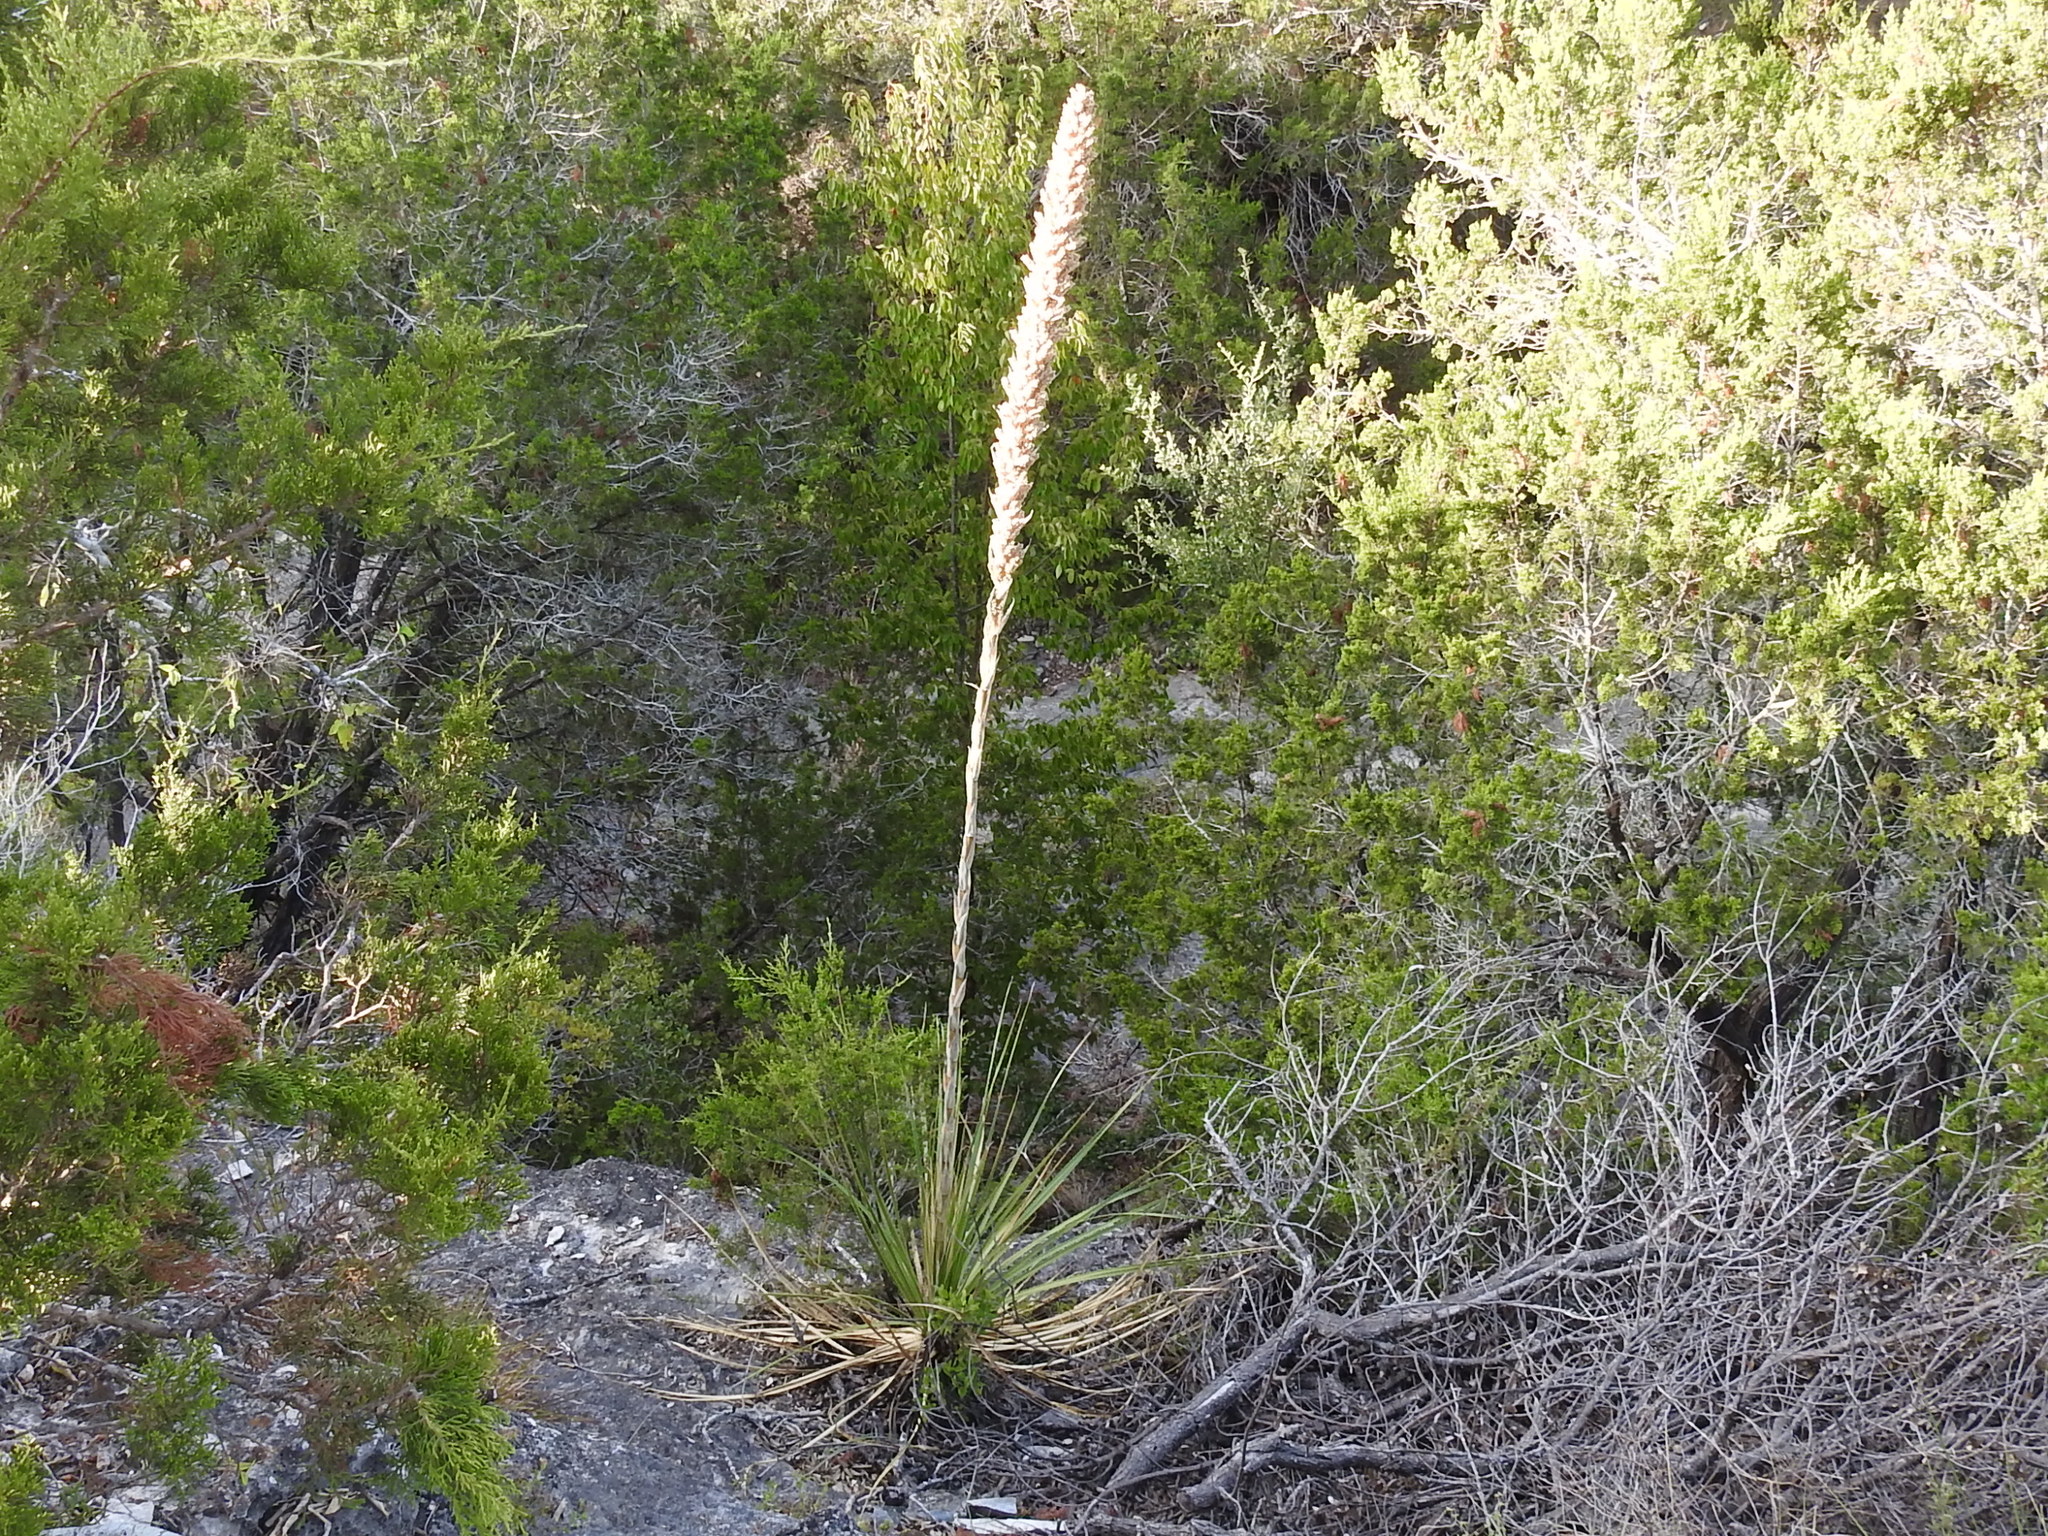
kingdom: Plantae
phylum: Tracheophyta
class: Liliopsida
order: Asparagales
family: Asparagaceae
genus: Dasylirion
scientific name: Dasylirion texanum
